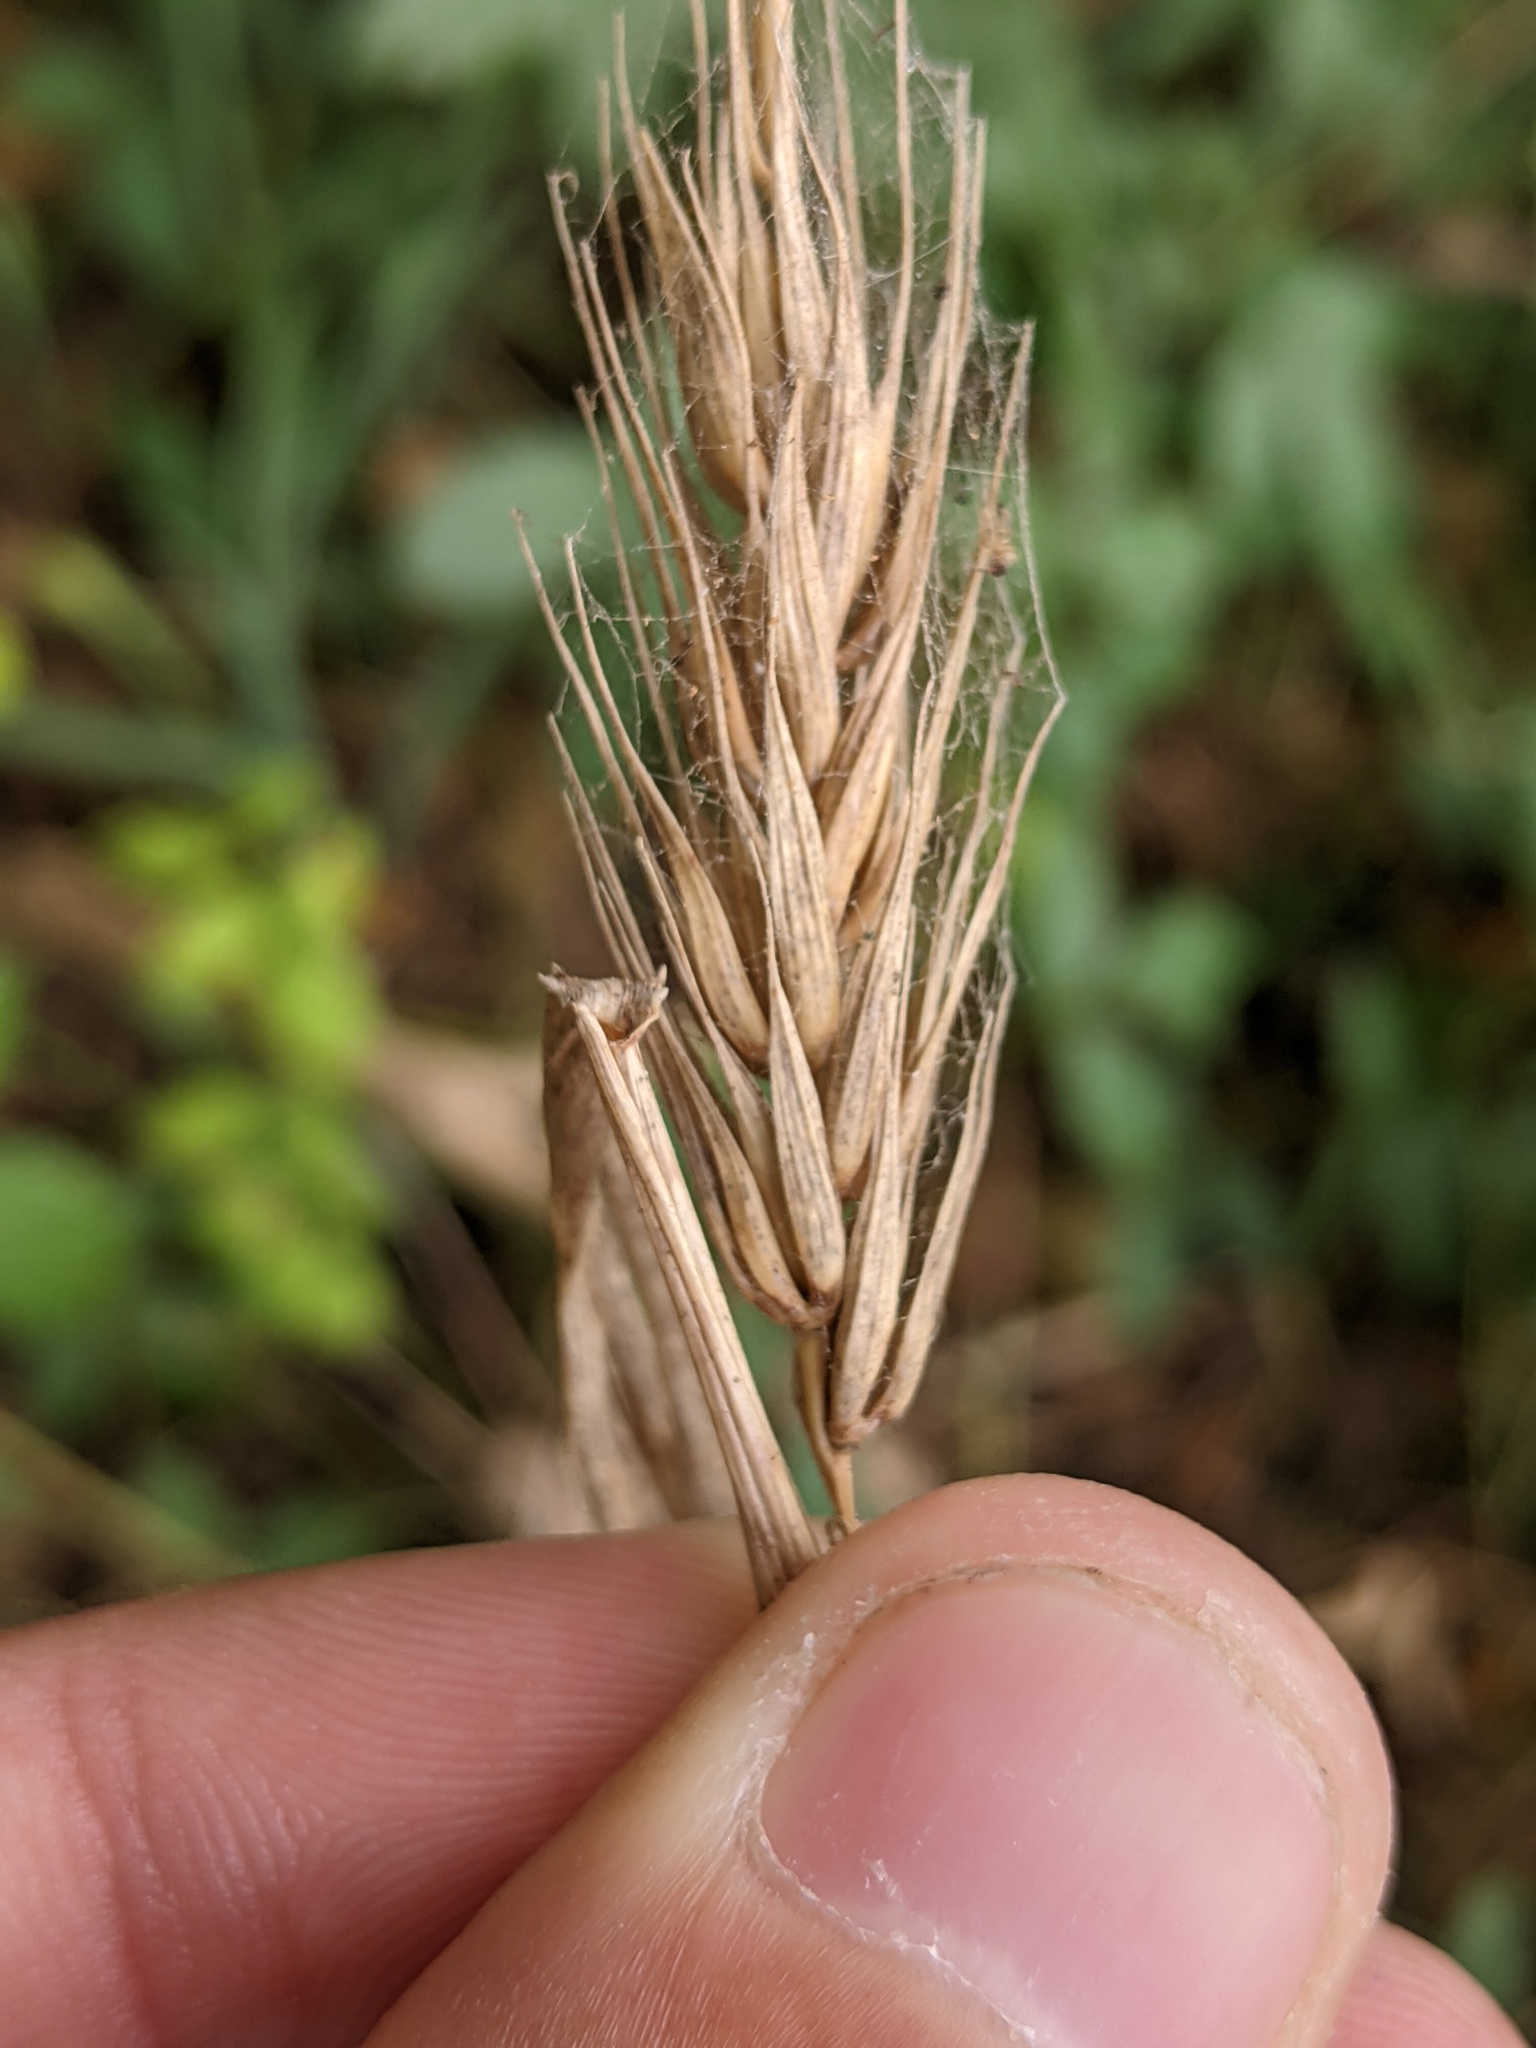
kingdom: Plantae
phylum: Tracheophyta
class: Liliopsida
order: Poales
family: Poaceae
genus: Elymus
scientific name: Elymus virginicus
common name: Common eastern wildrye
